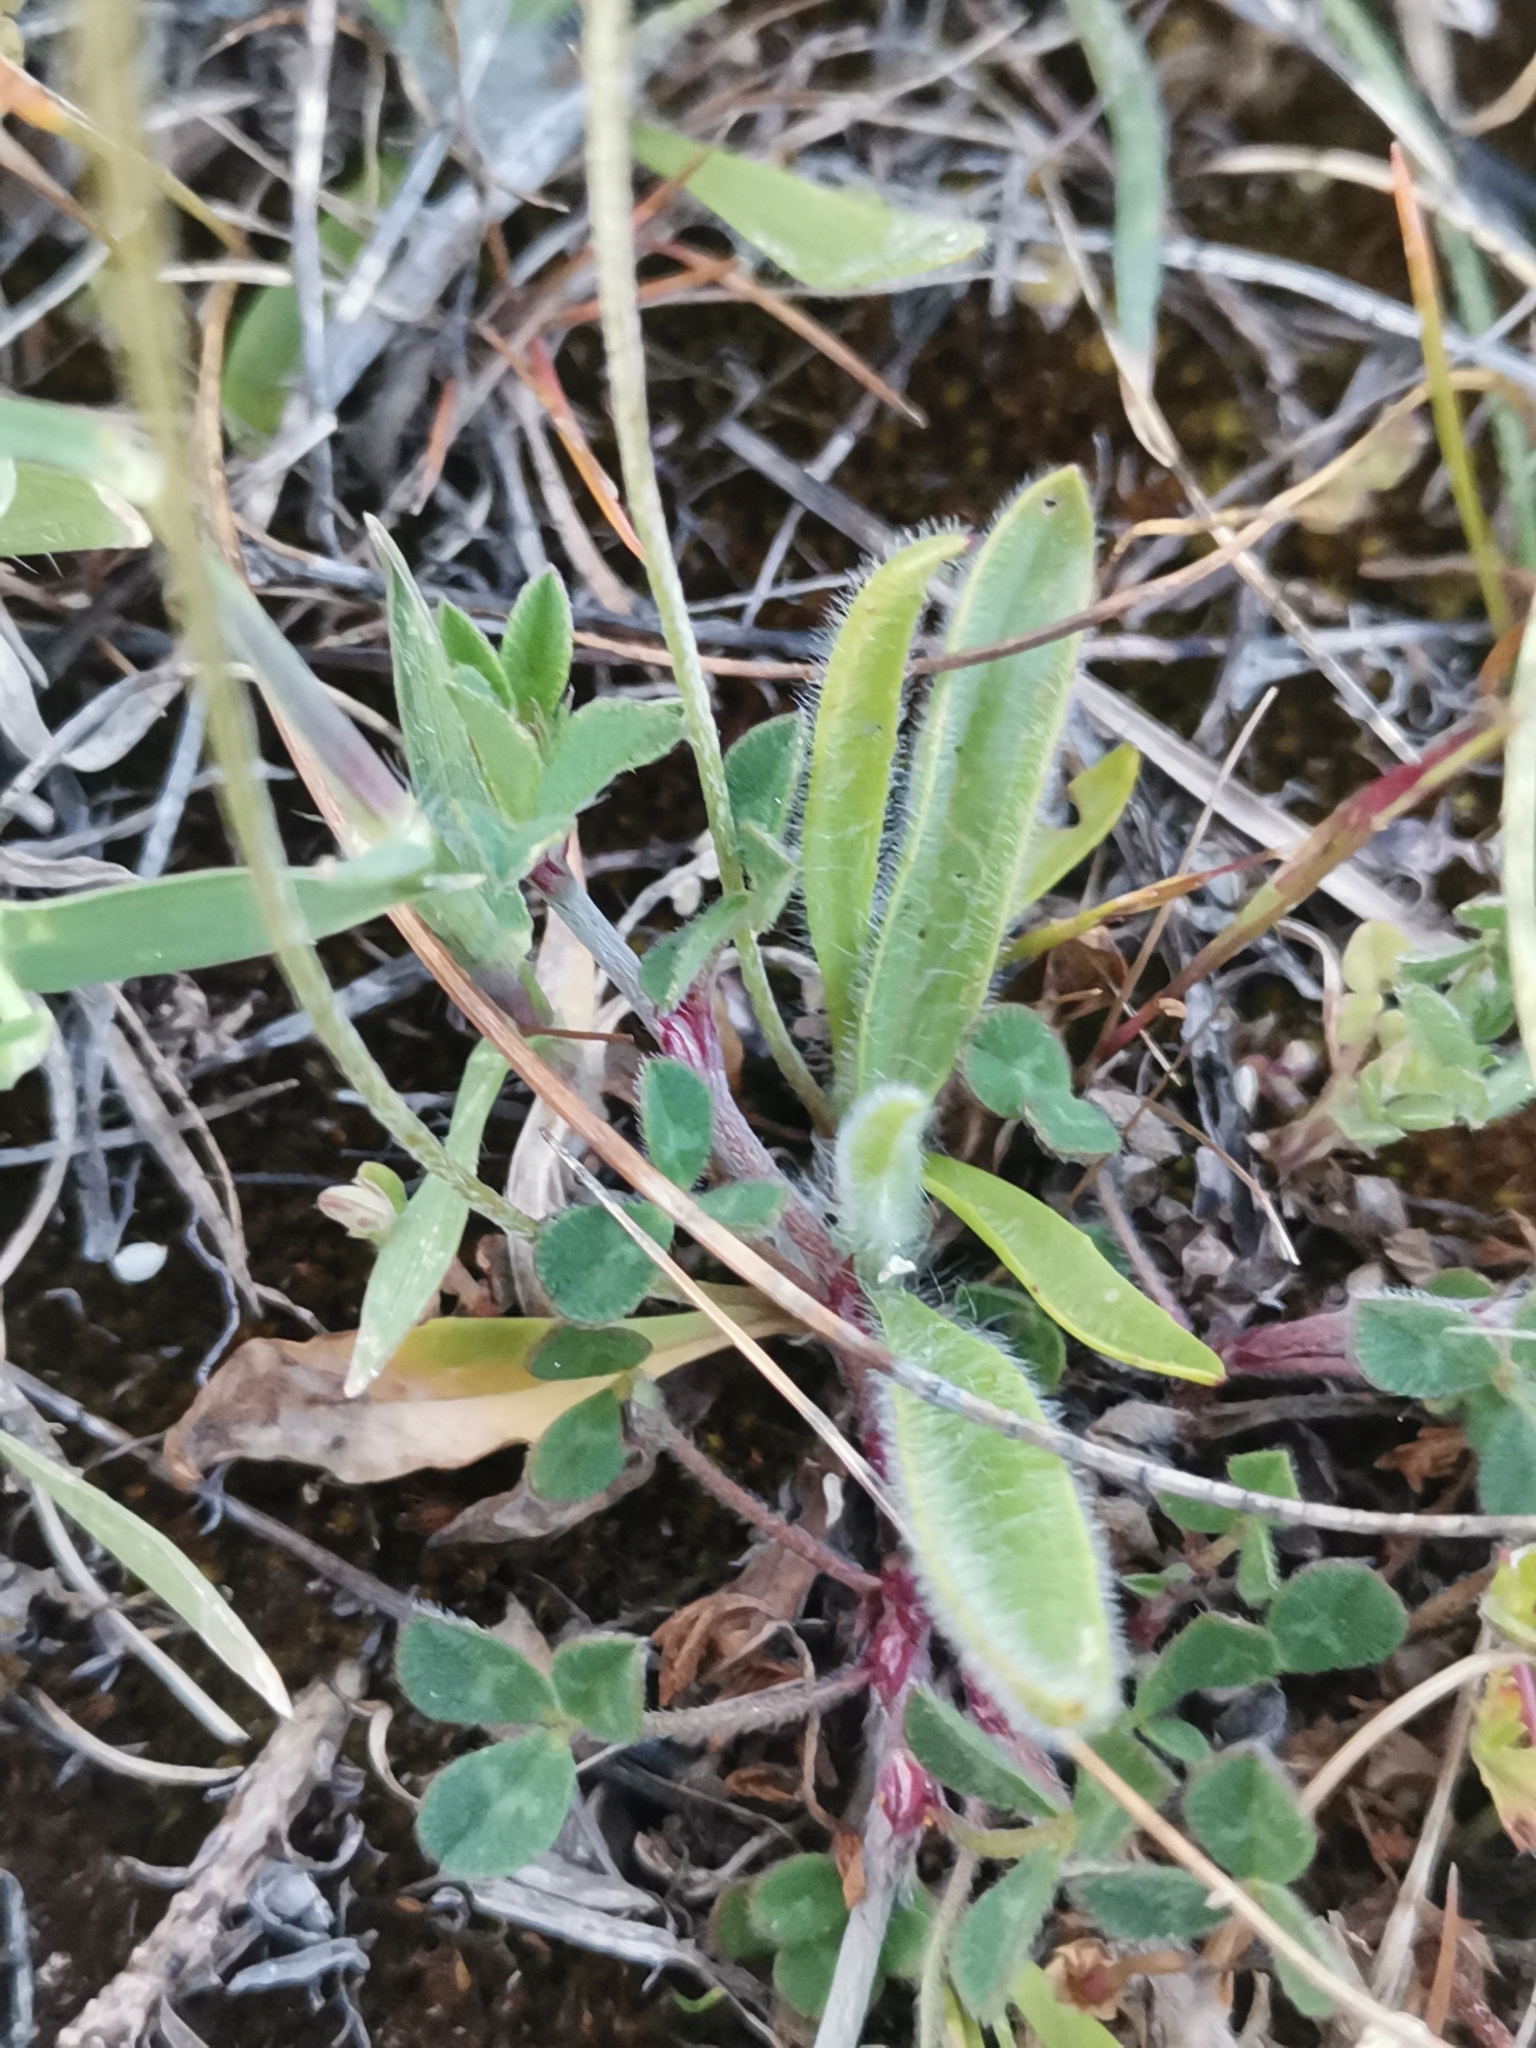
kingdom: Plantae
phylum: Tracheophyta
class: Magnoliopsida
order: Lamiales
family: Plantaginaceae
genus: Plantago
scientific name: Plantago bellardii
